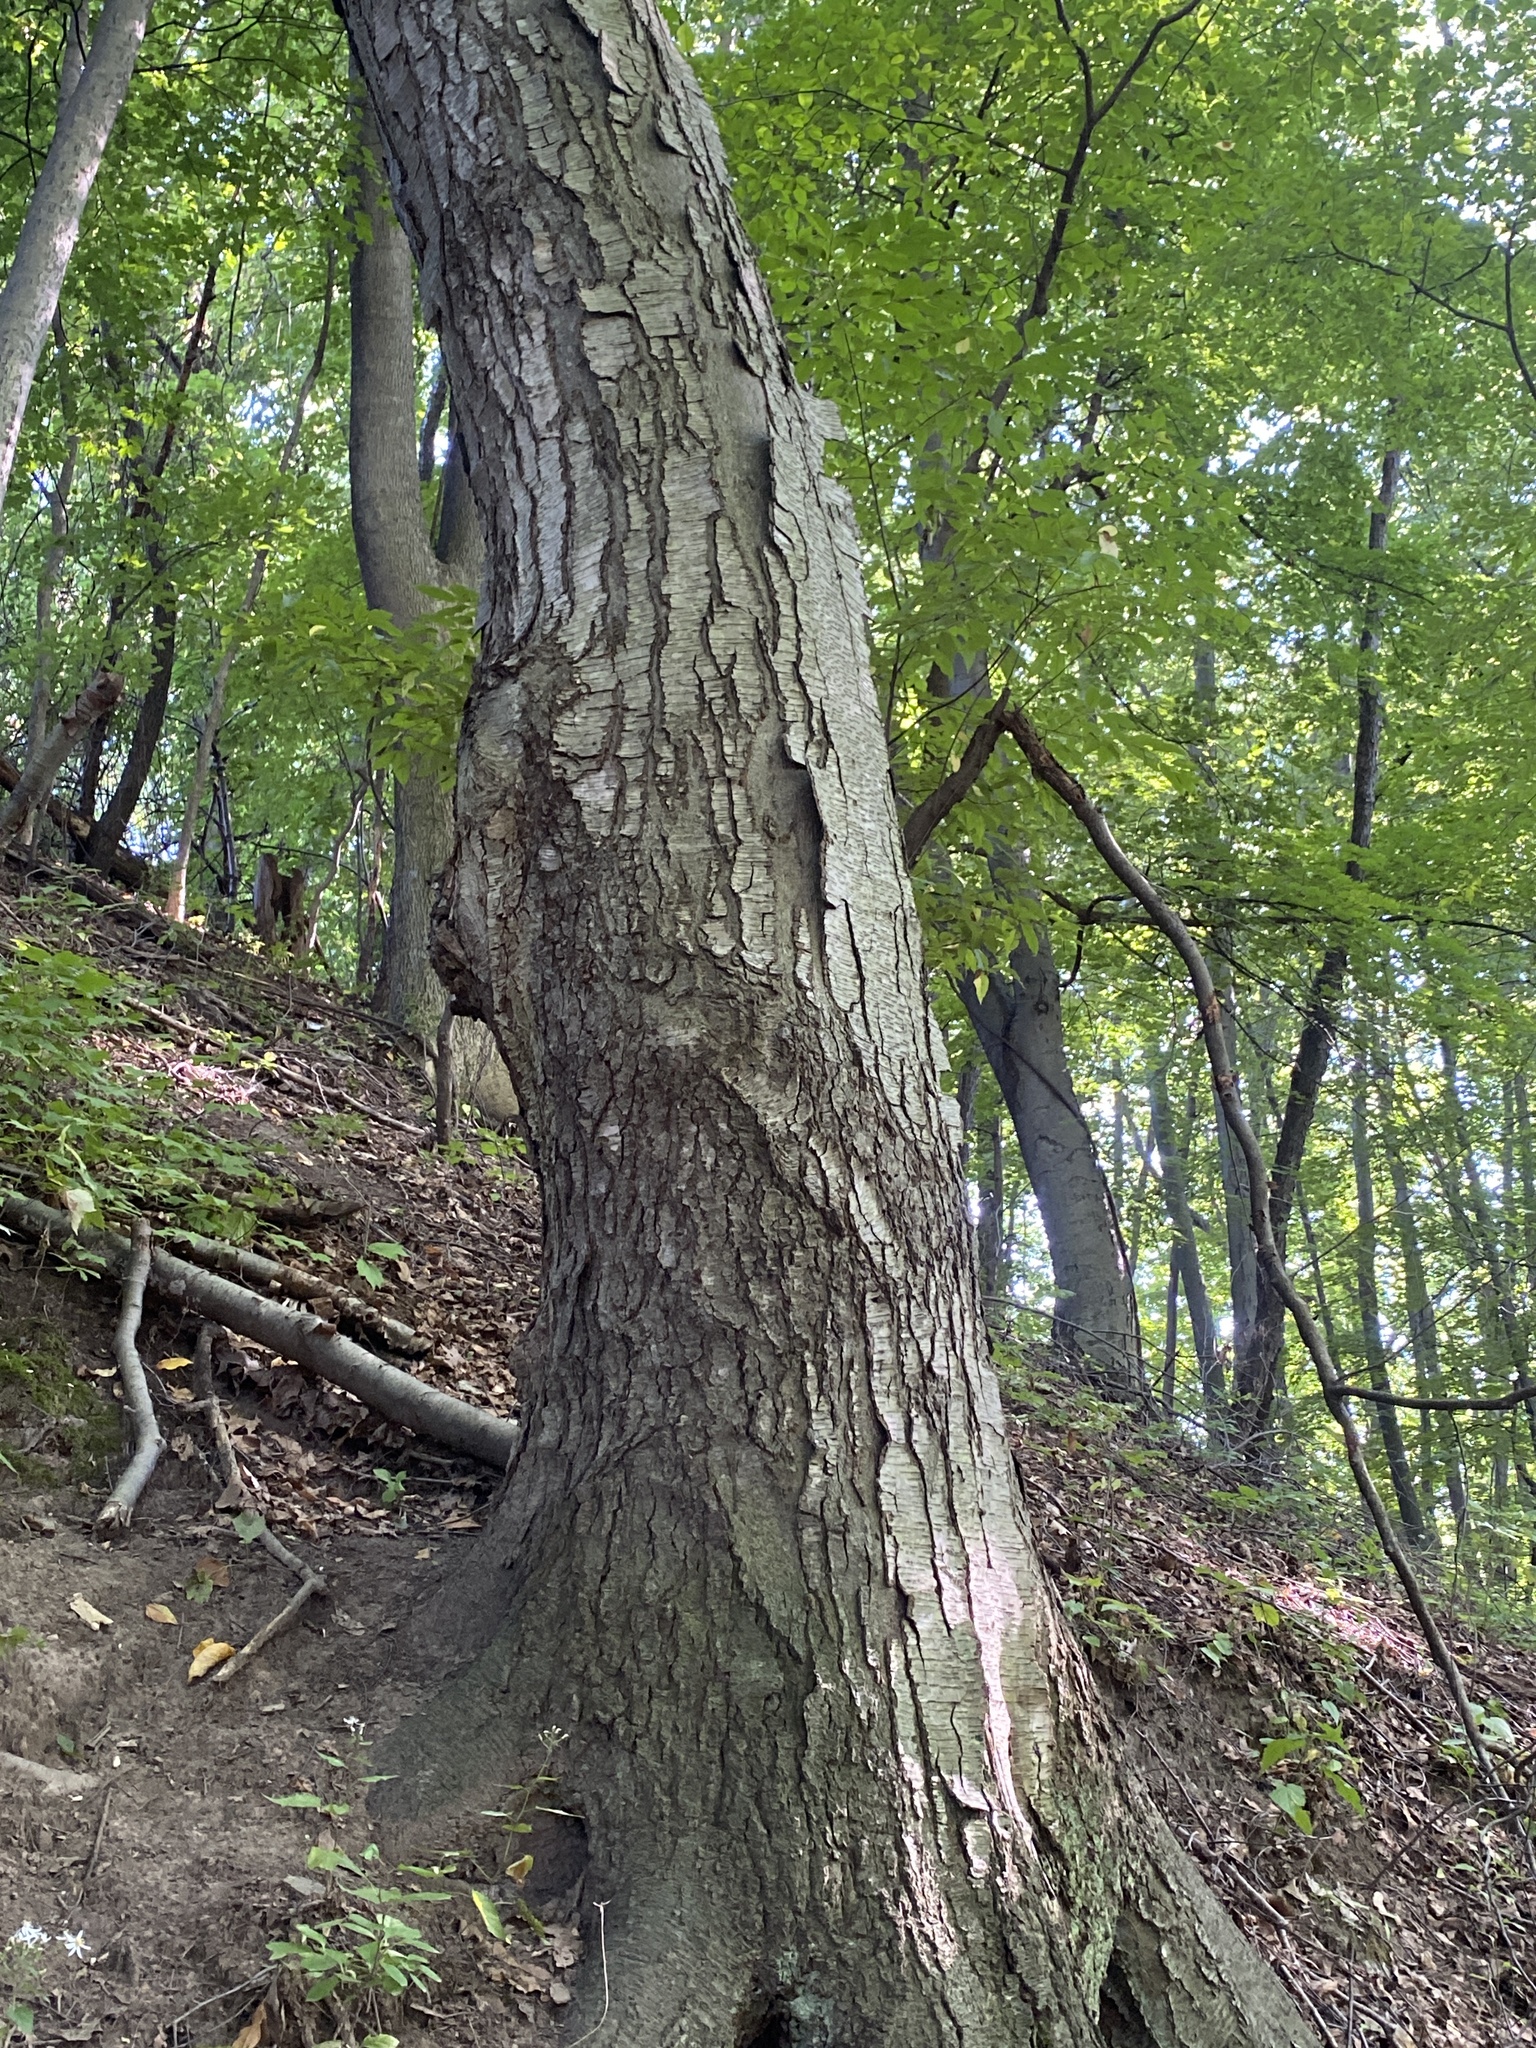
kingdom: Plantae
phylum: Tracheophyta
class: Magnoliopsida
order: Fagales
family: Betulaceae
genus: Betula
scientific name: Betula lenta
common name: Black birch
